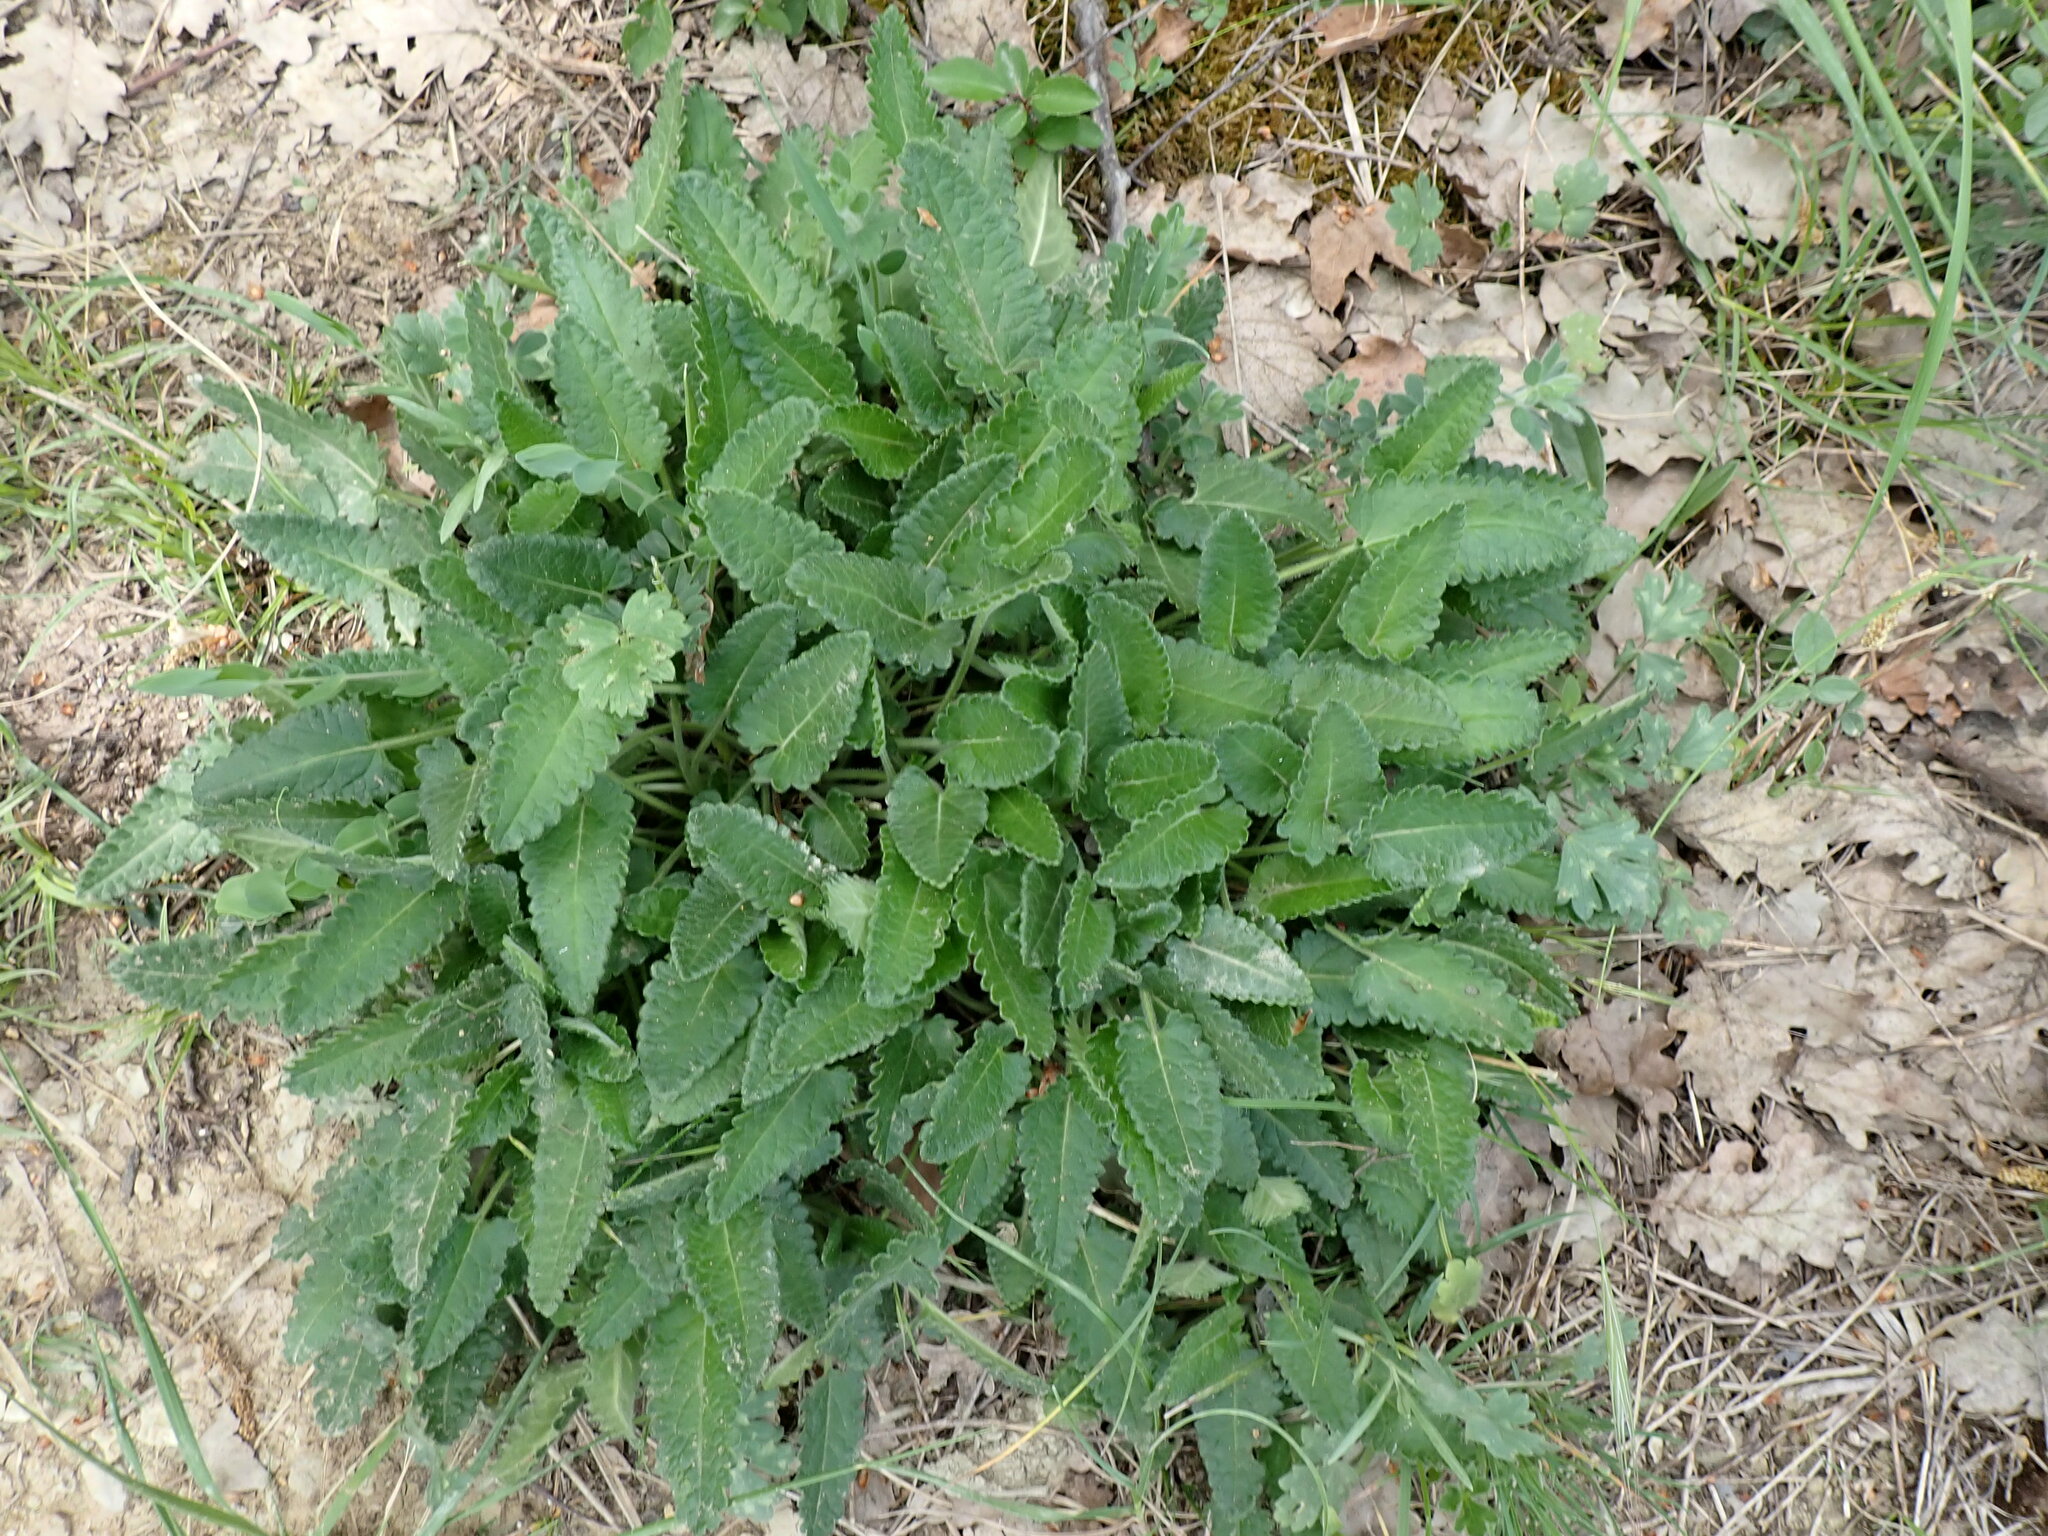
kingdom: Plantae
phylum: Tracheophyta
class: Magnoliopsida
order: Lamiales
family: Lamiaceae
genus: Betonica
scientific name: Betonica officinalis
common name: Bishop's-wort
